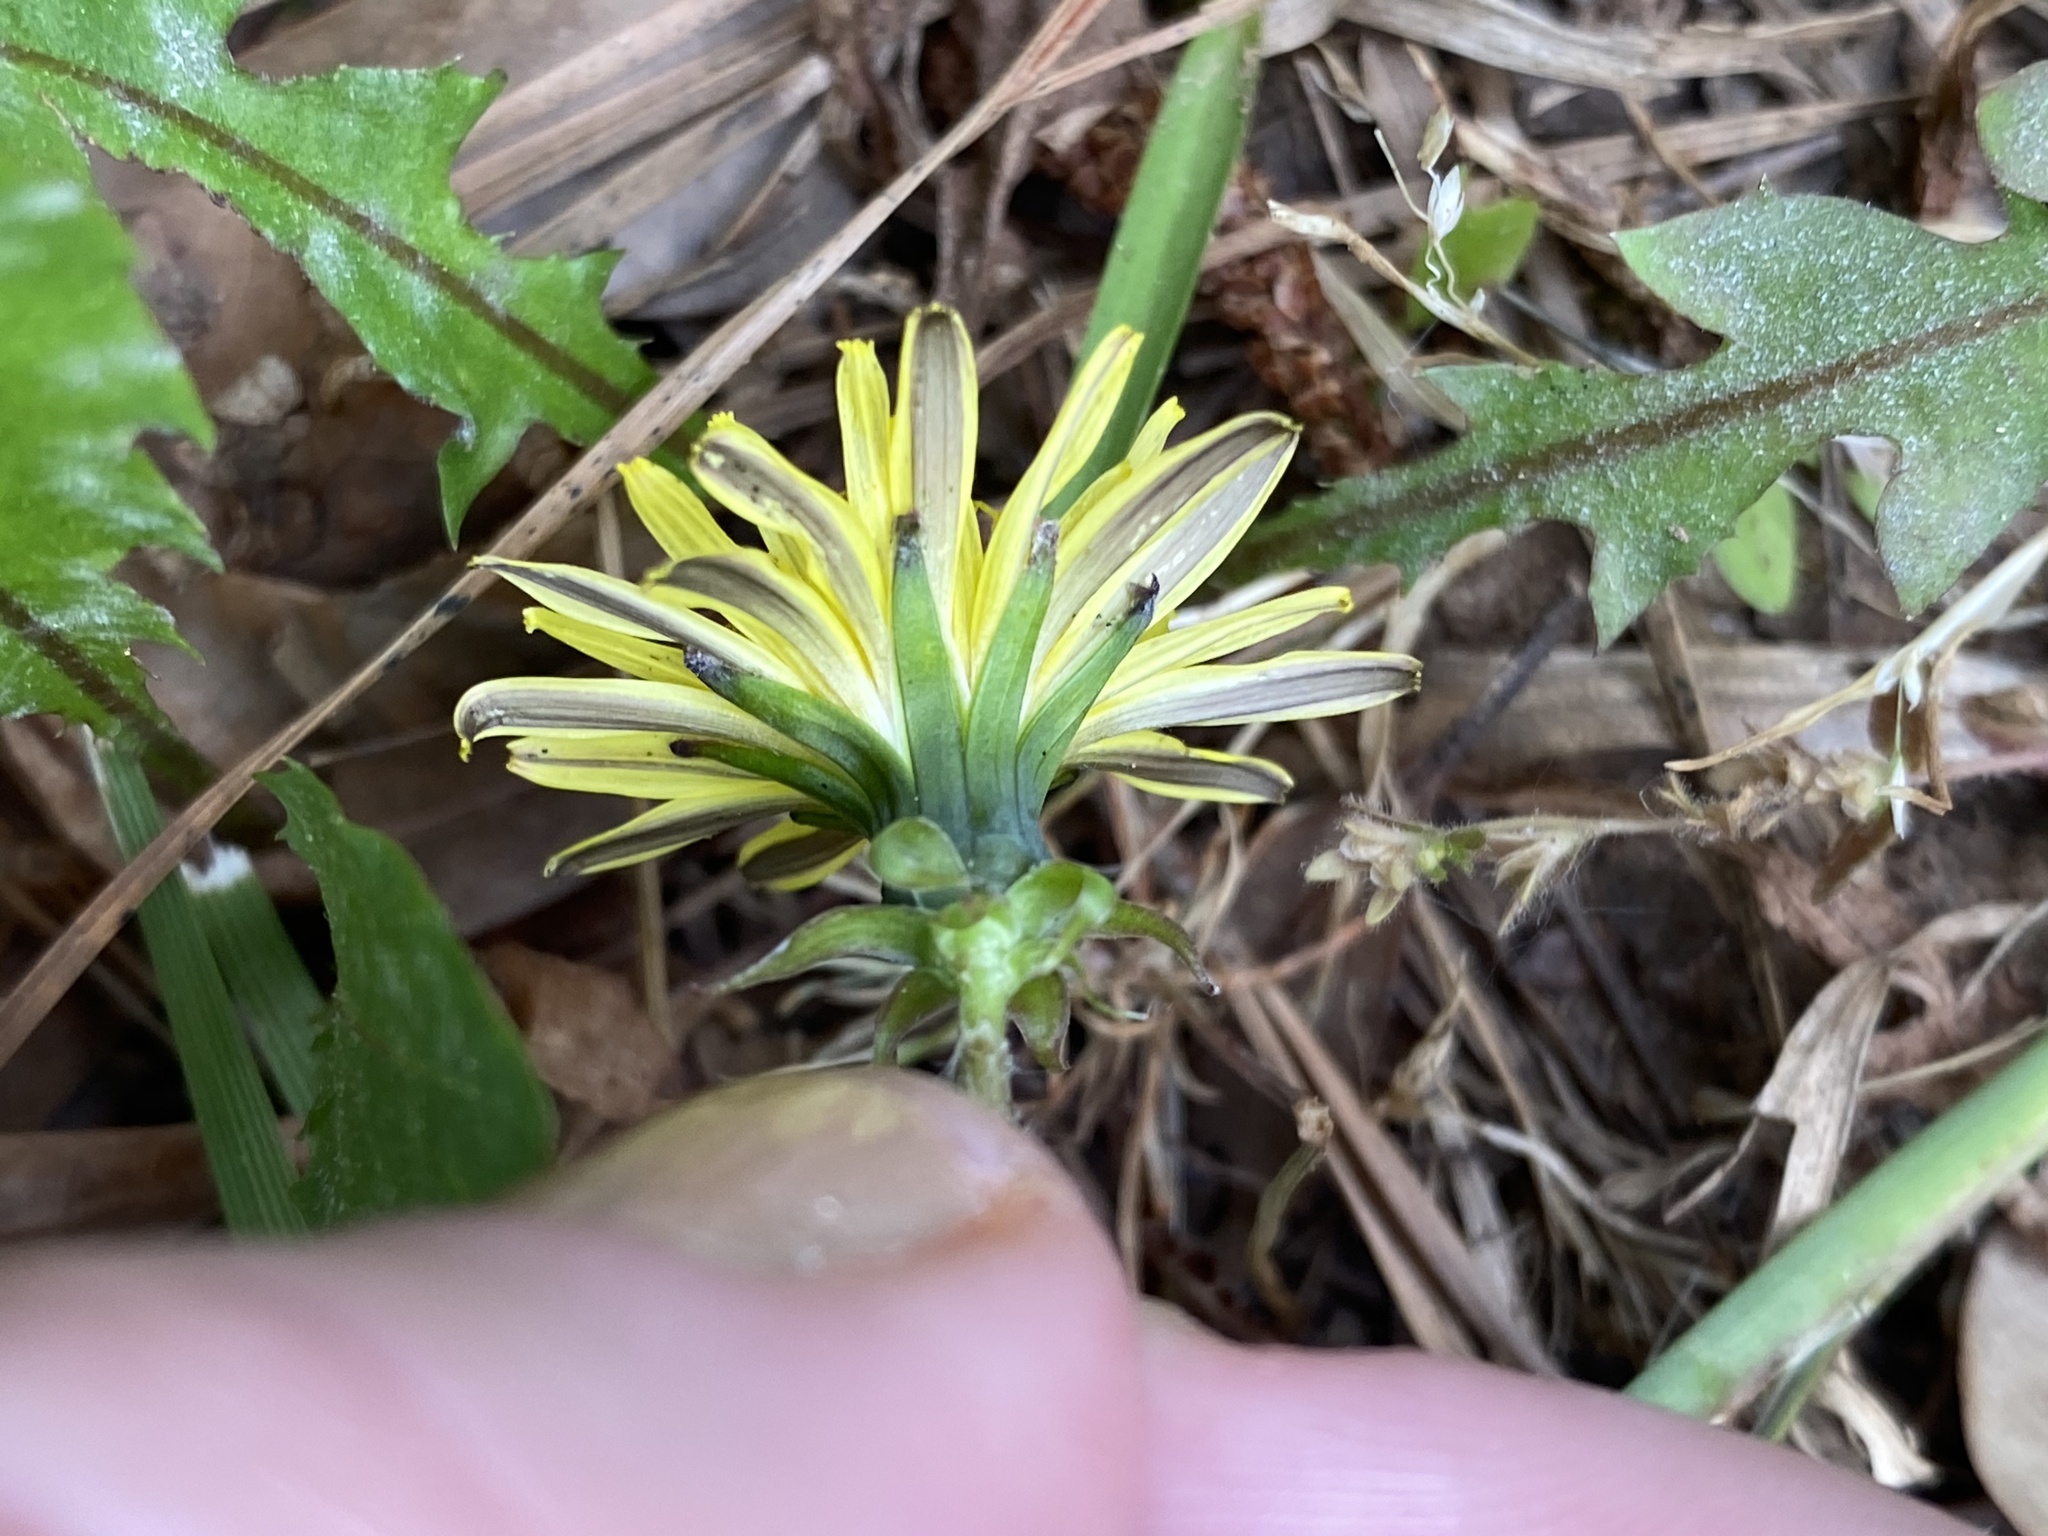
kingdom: Plantae
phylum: Tracheophyta
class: Magnoliopsida
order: Asterales
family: Asteraceae
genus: Taraxacum
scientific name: Taraxacum erythrospermum
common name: Rock dandelion
